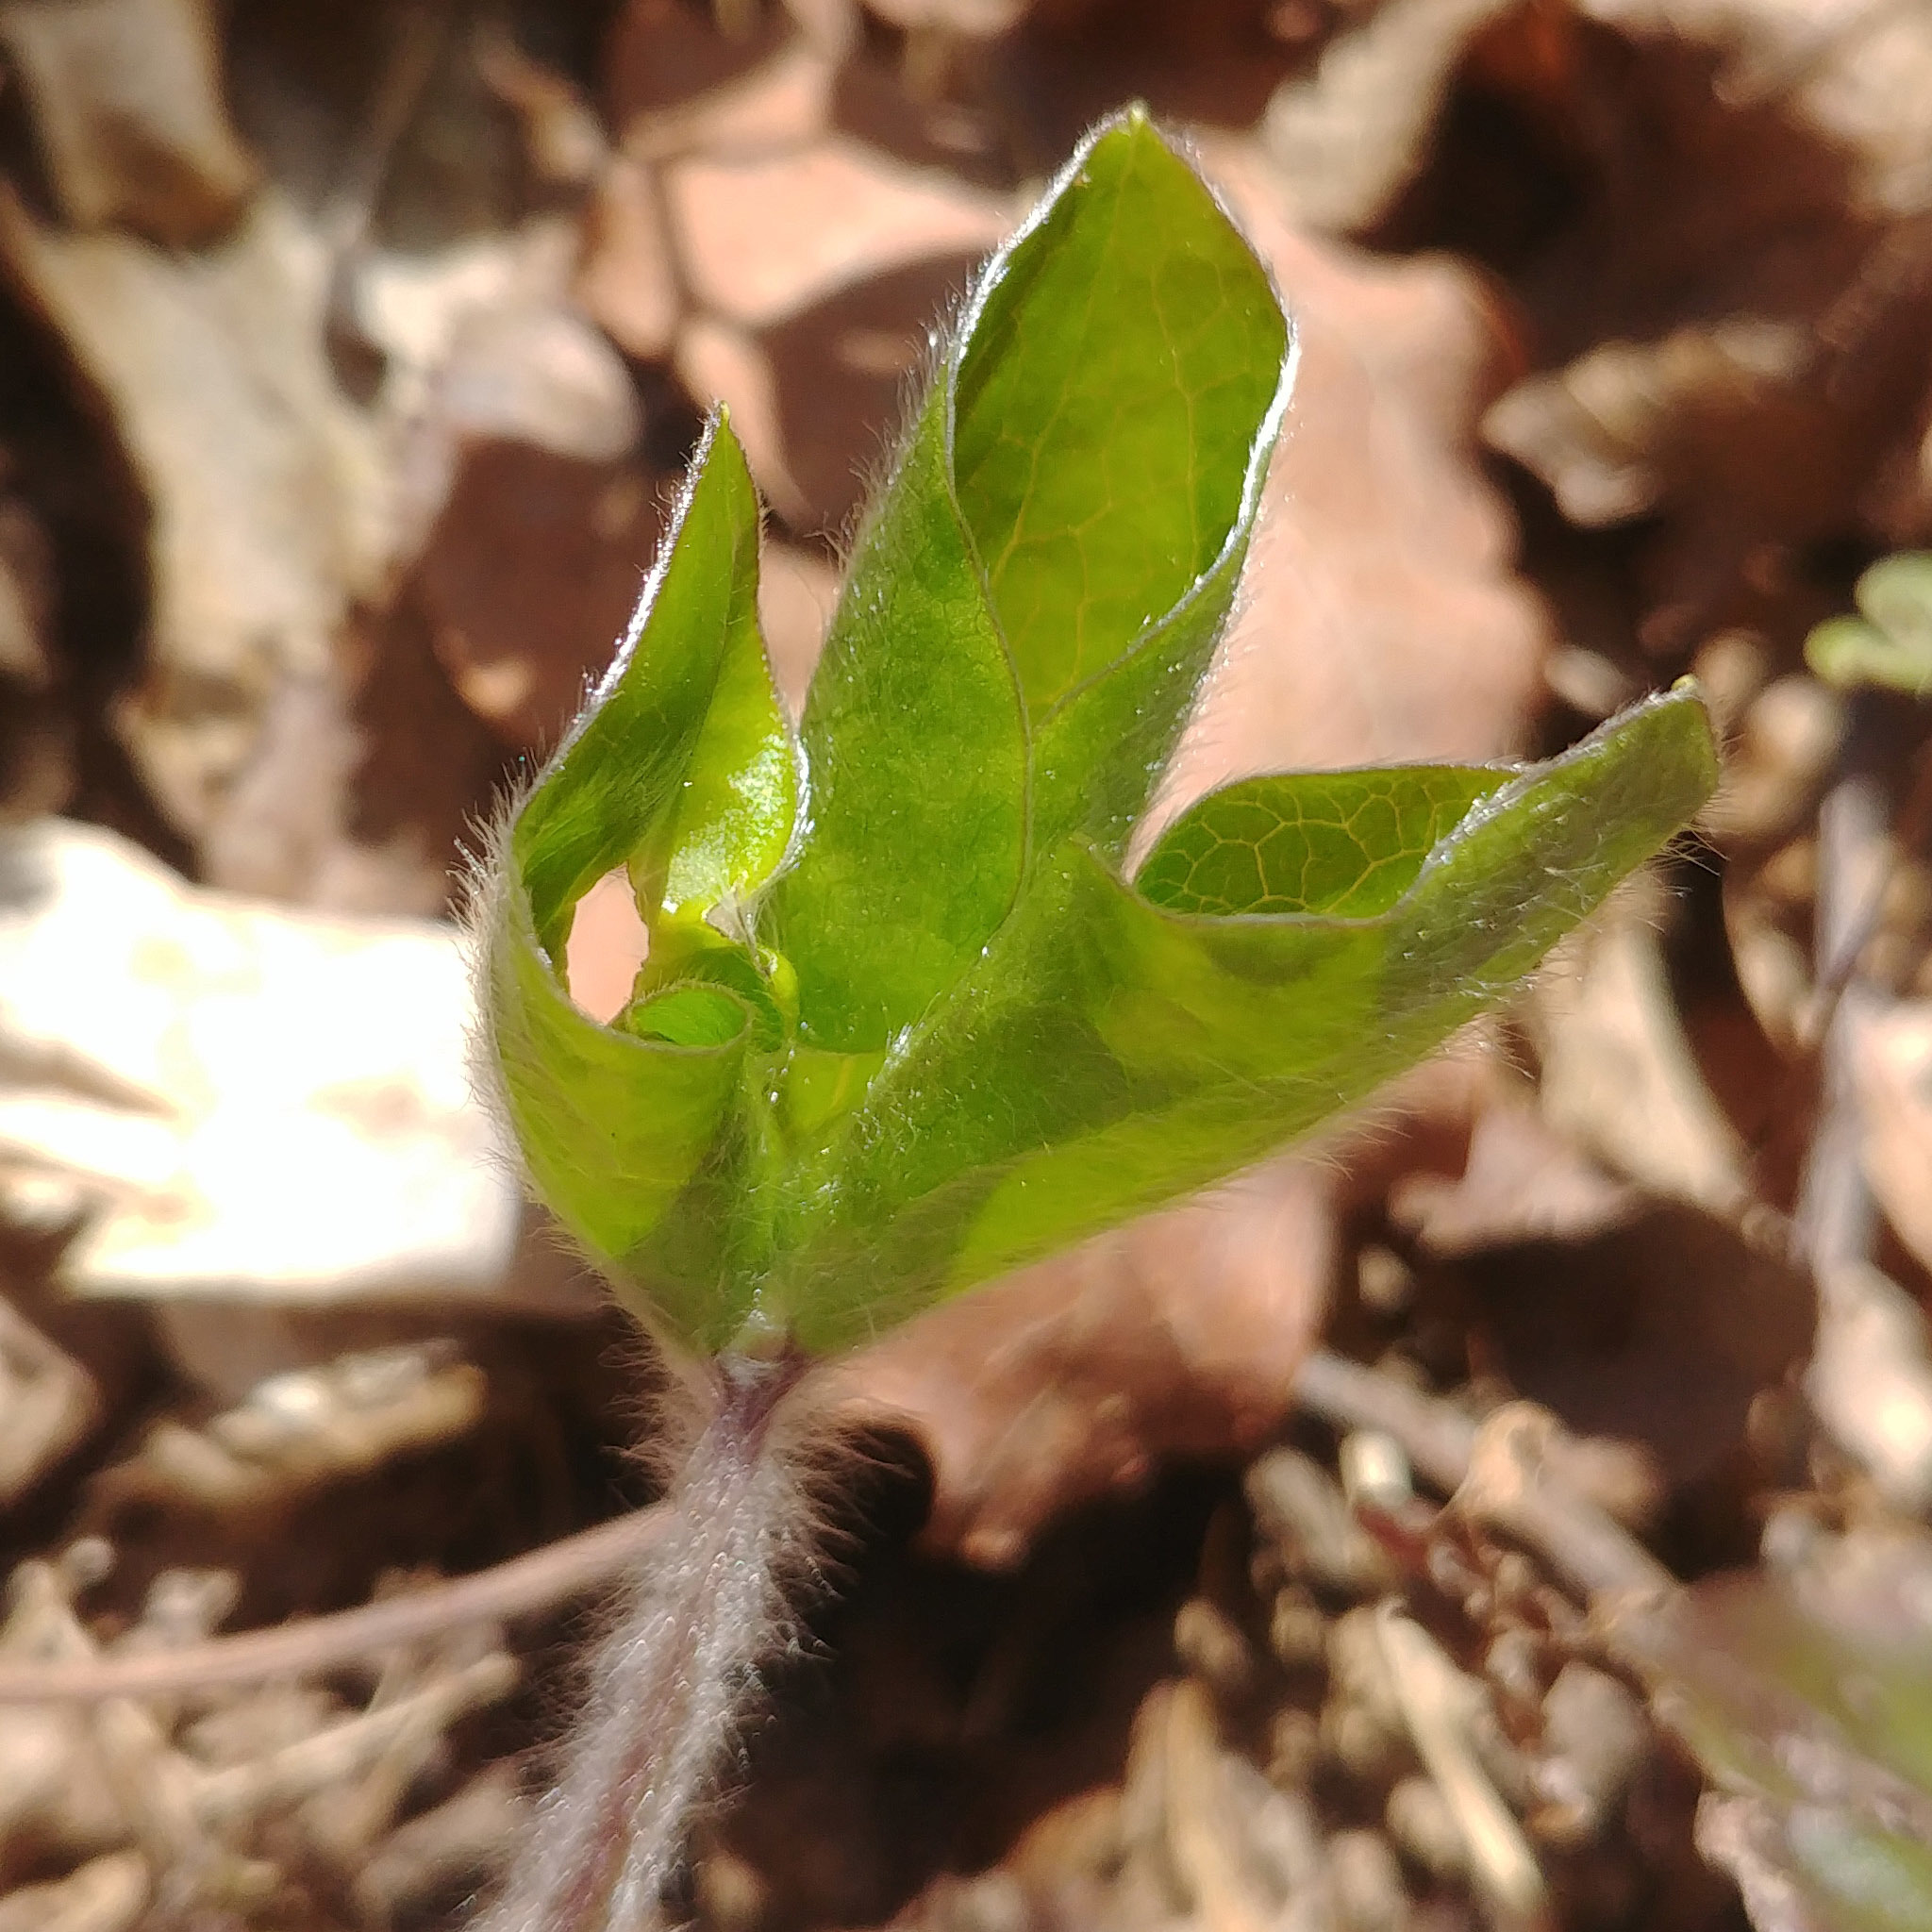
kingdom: Plantae
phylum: Tracheophyta
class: Magnoliopsida
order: Ranunculales
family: Ranunculaceae
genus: Hepatica
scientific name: Hepatica nobilis
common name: Liverleaf
